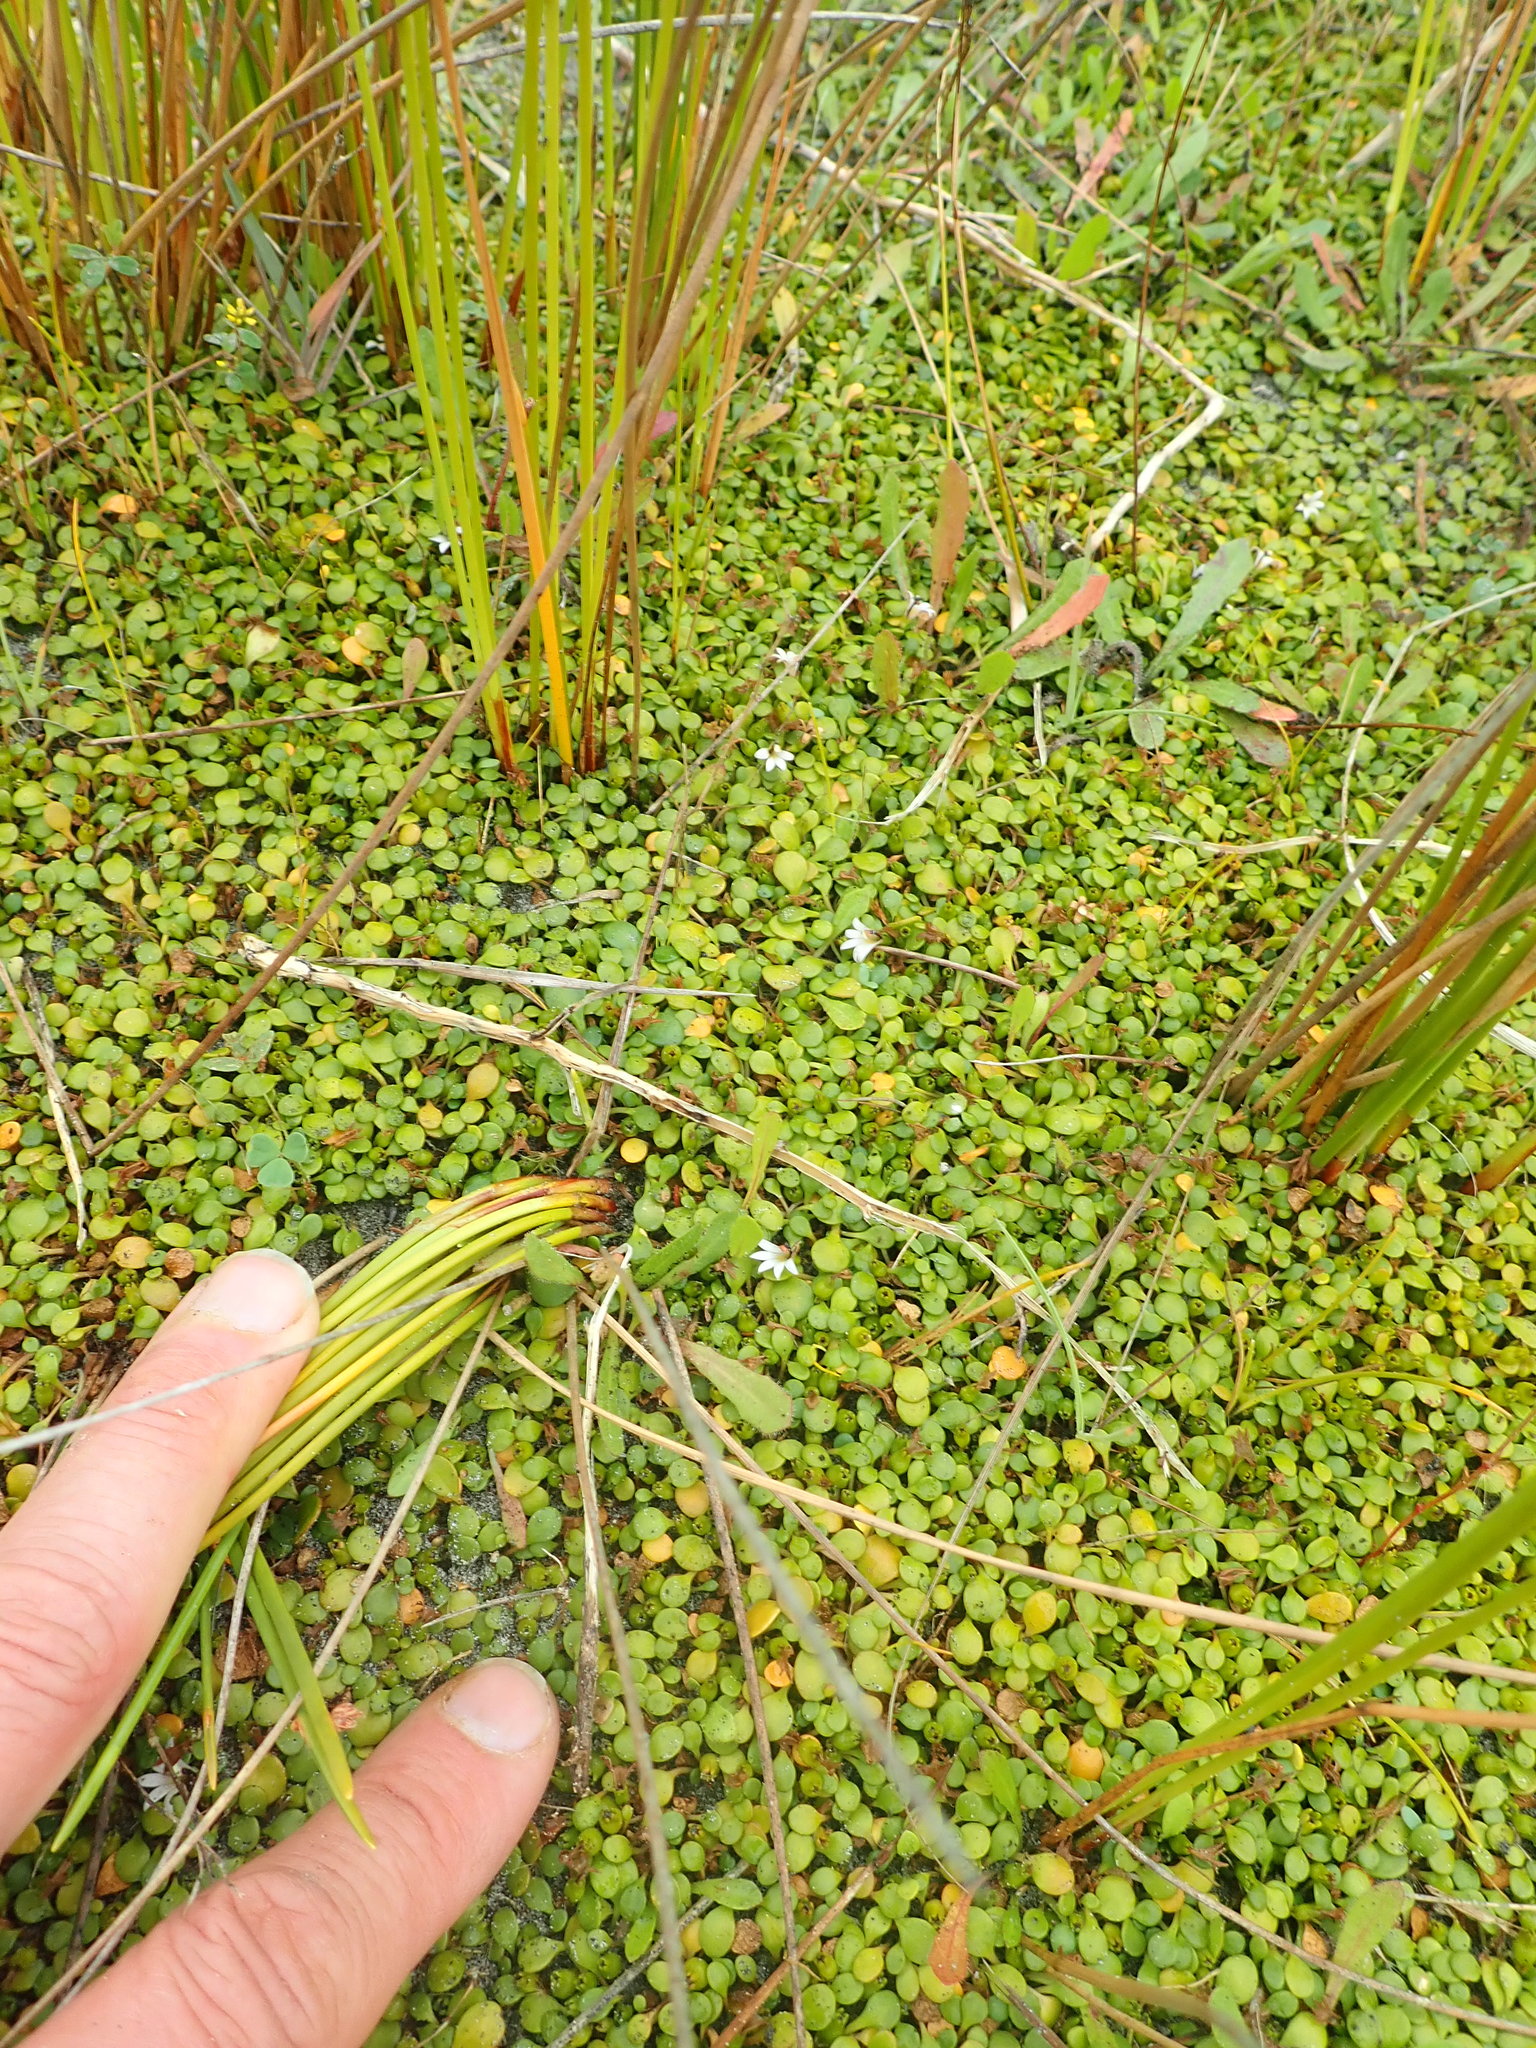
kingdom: Plantae
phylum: Tracheophyta
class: Magnoliopsida
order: Asterales
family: Goodeniaceae
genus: Goodenia
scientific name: Goodenia heenanii
